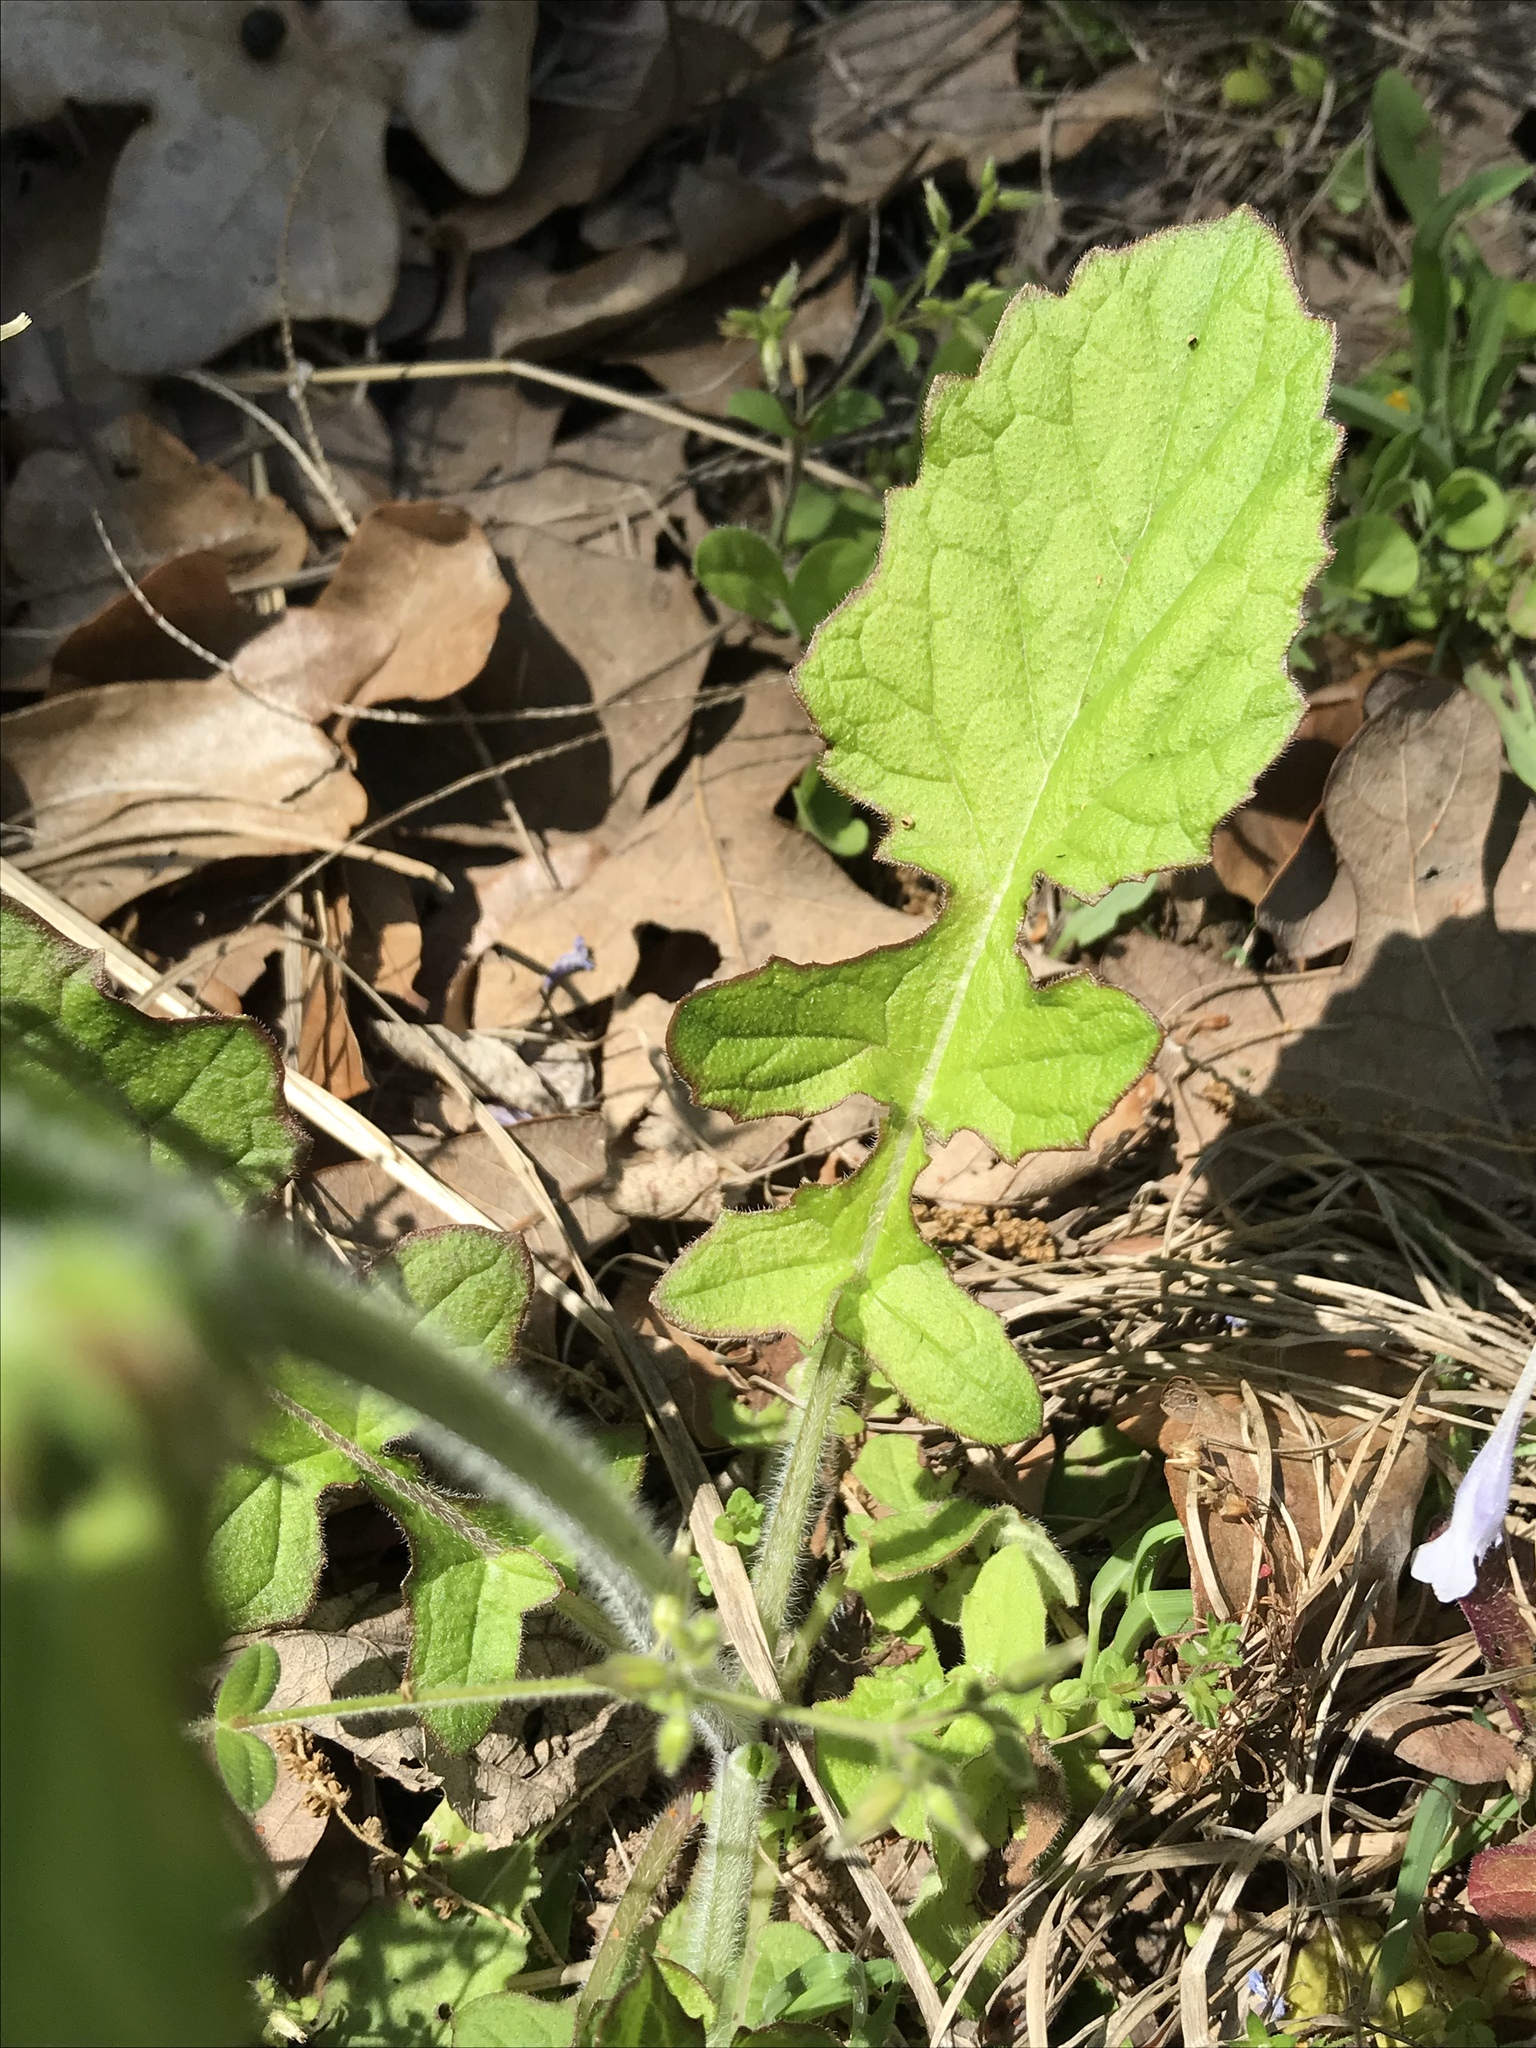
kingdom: Plantae
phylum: Tracheophyta
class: Magnoliopsida
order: Lamiales
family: Lamiaceae
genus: Salvia
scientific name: Salvia lyrata
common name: Cancerweed
